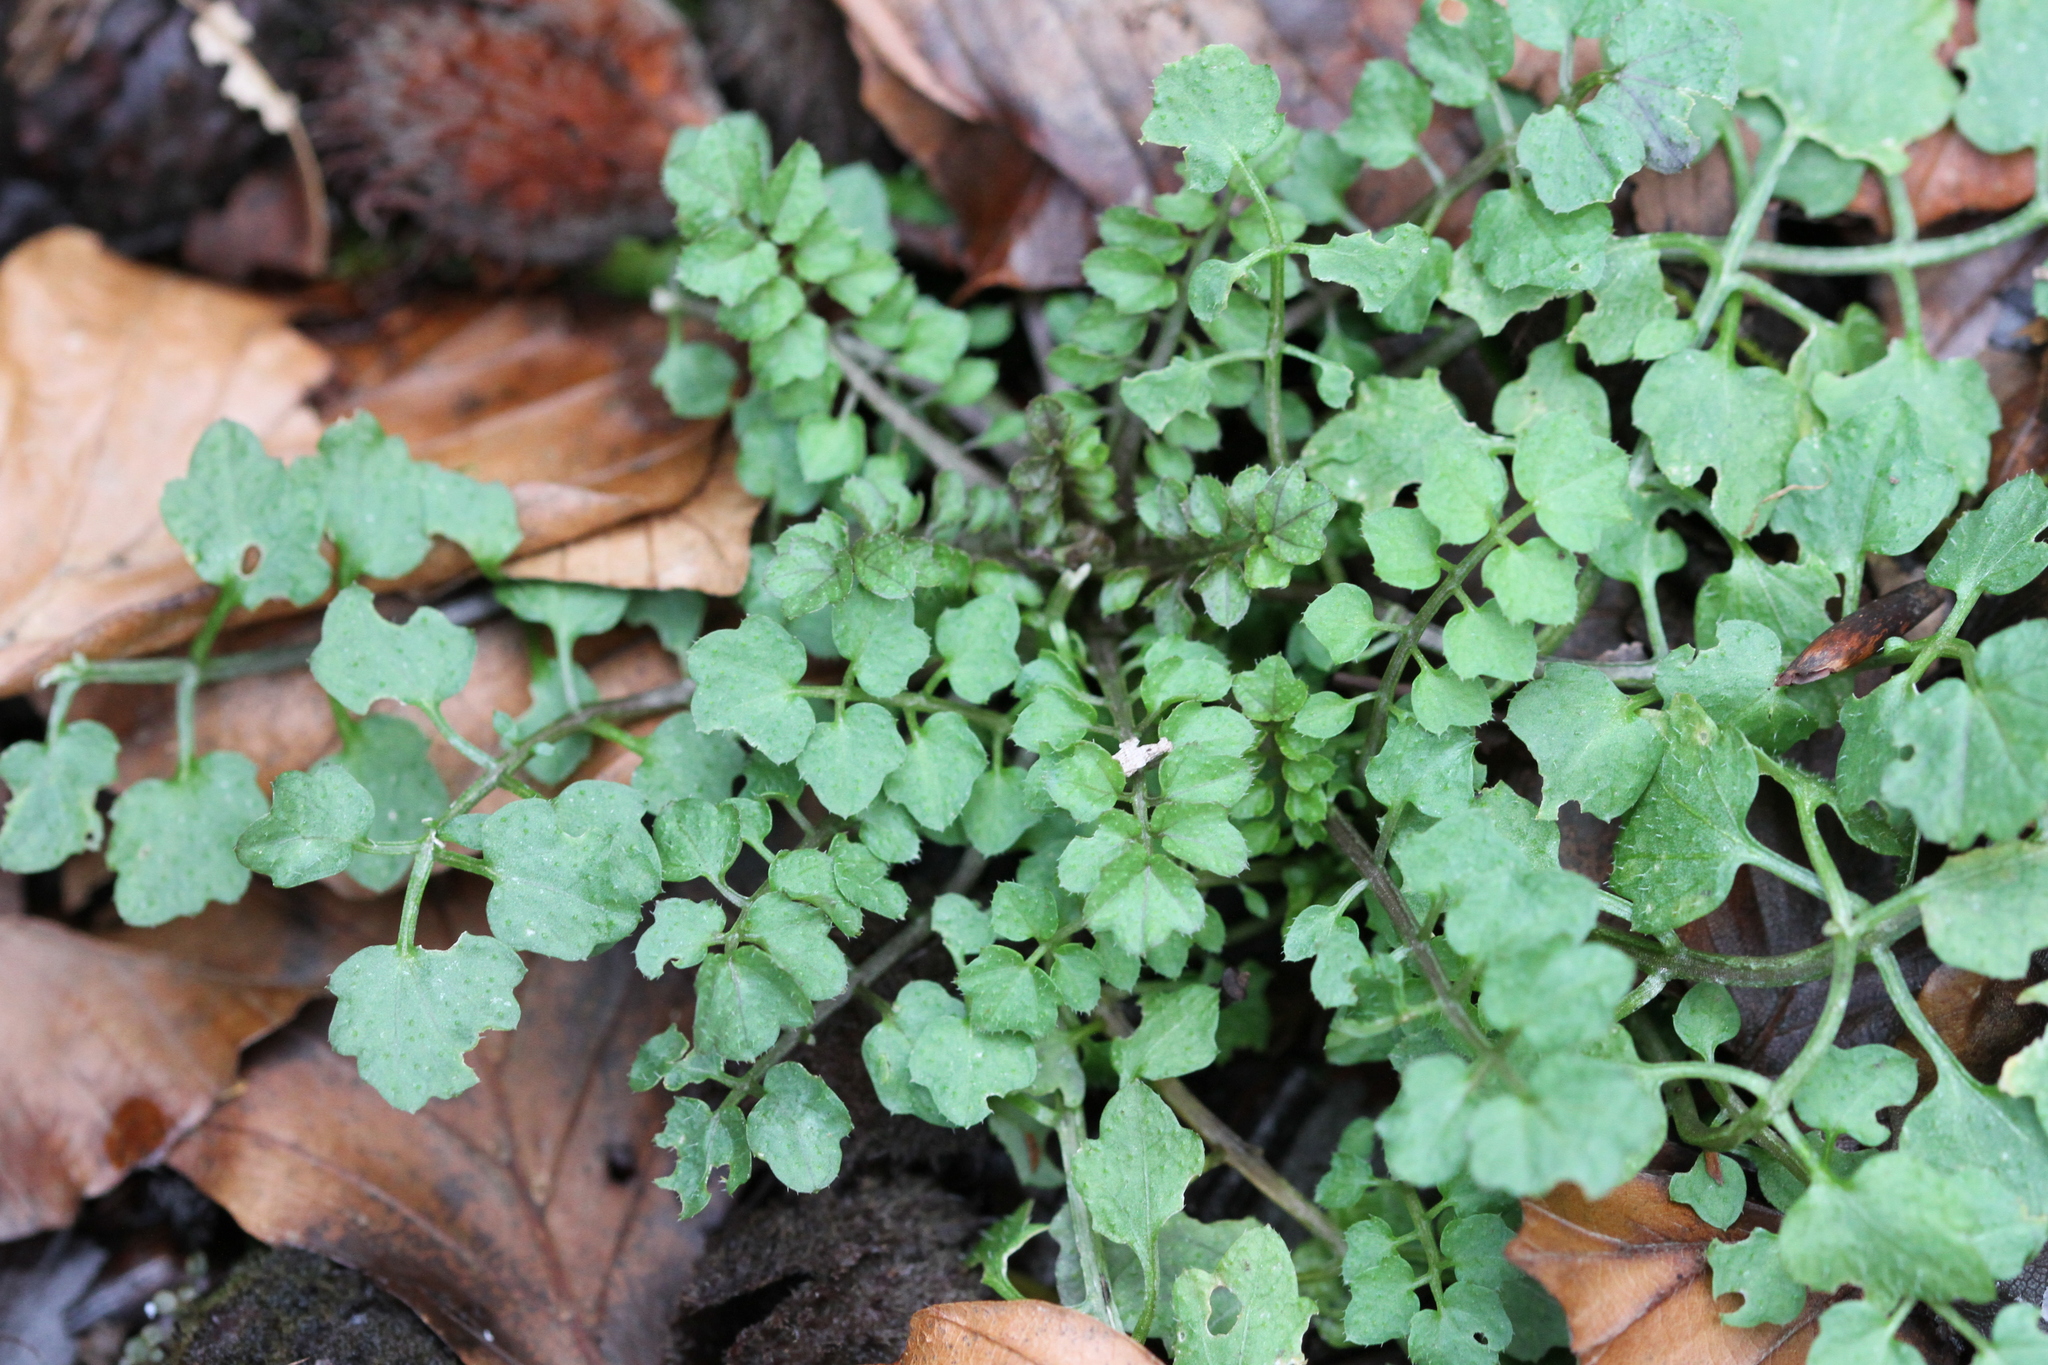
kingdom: Plantae
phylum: Tracheophyta
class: Magnoliopsida
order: Brassicales
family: Brassicaceae
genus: Cardamine
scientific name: Cardamine hirsuta
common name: Hairy bittercress
